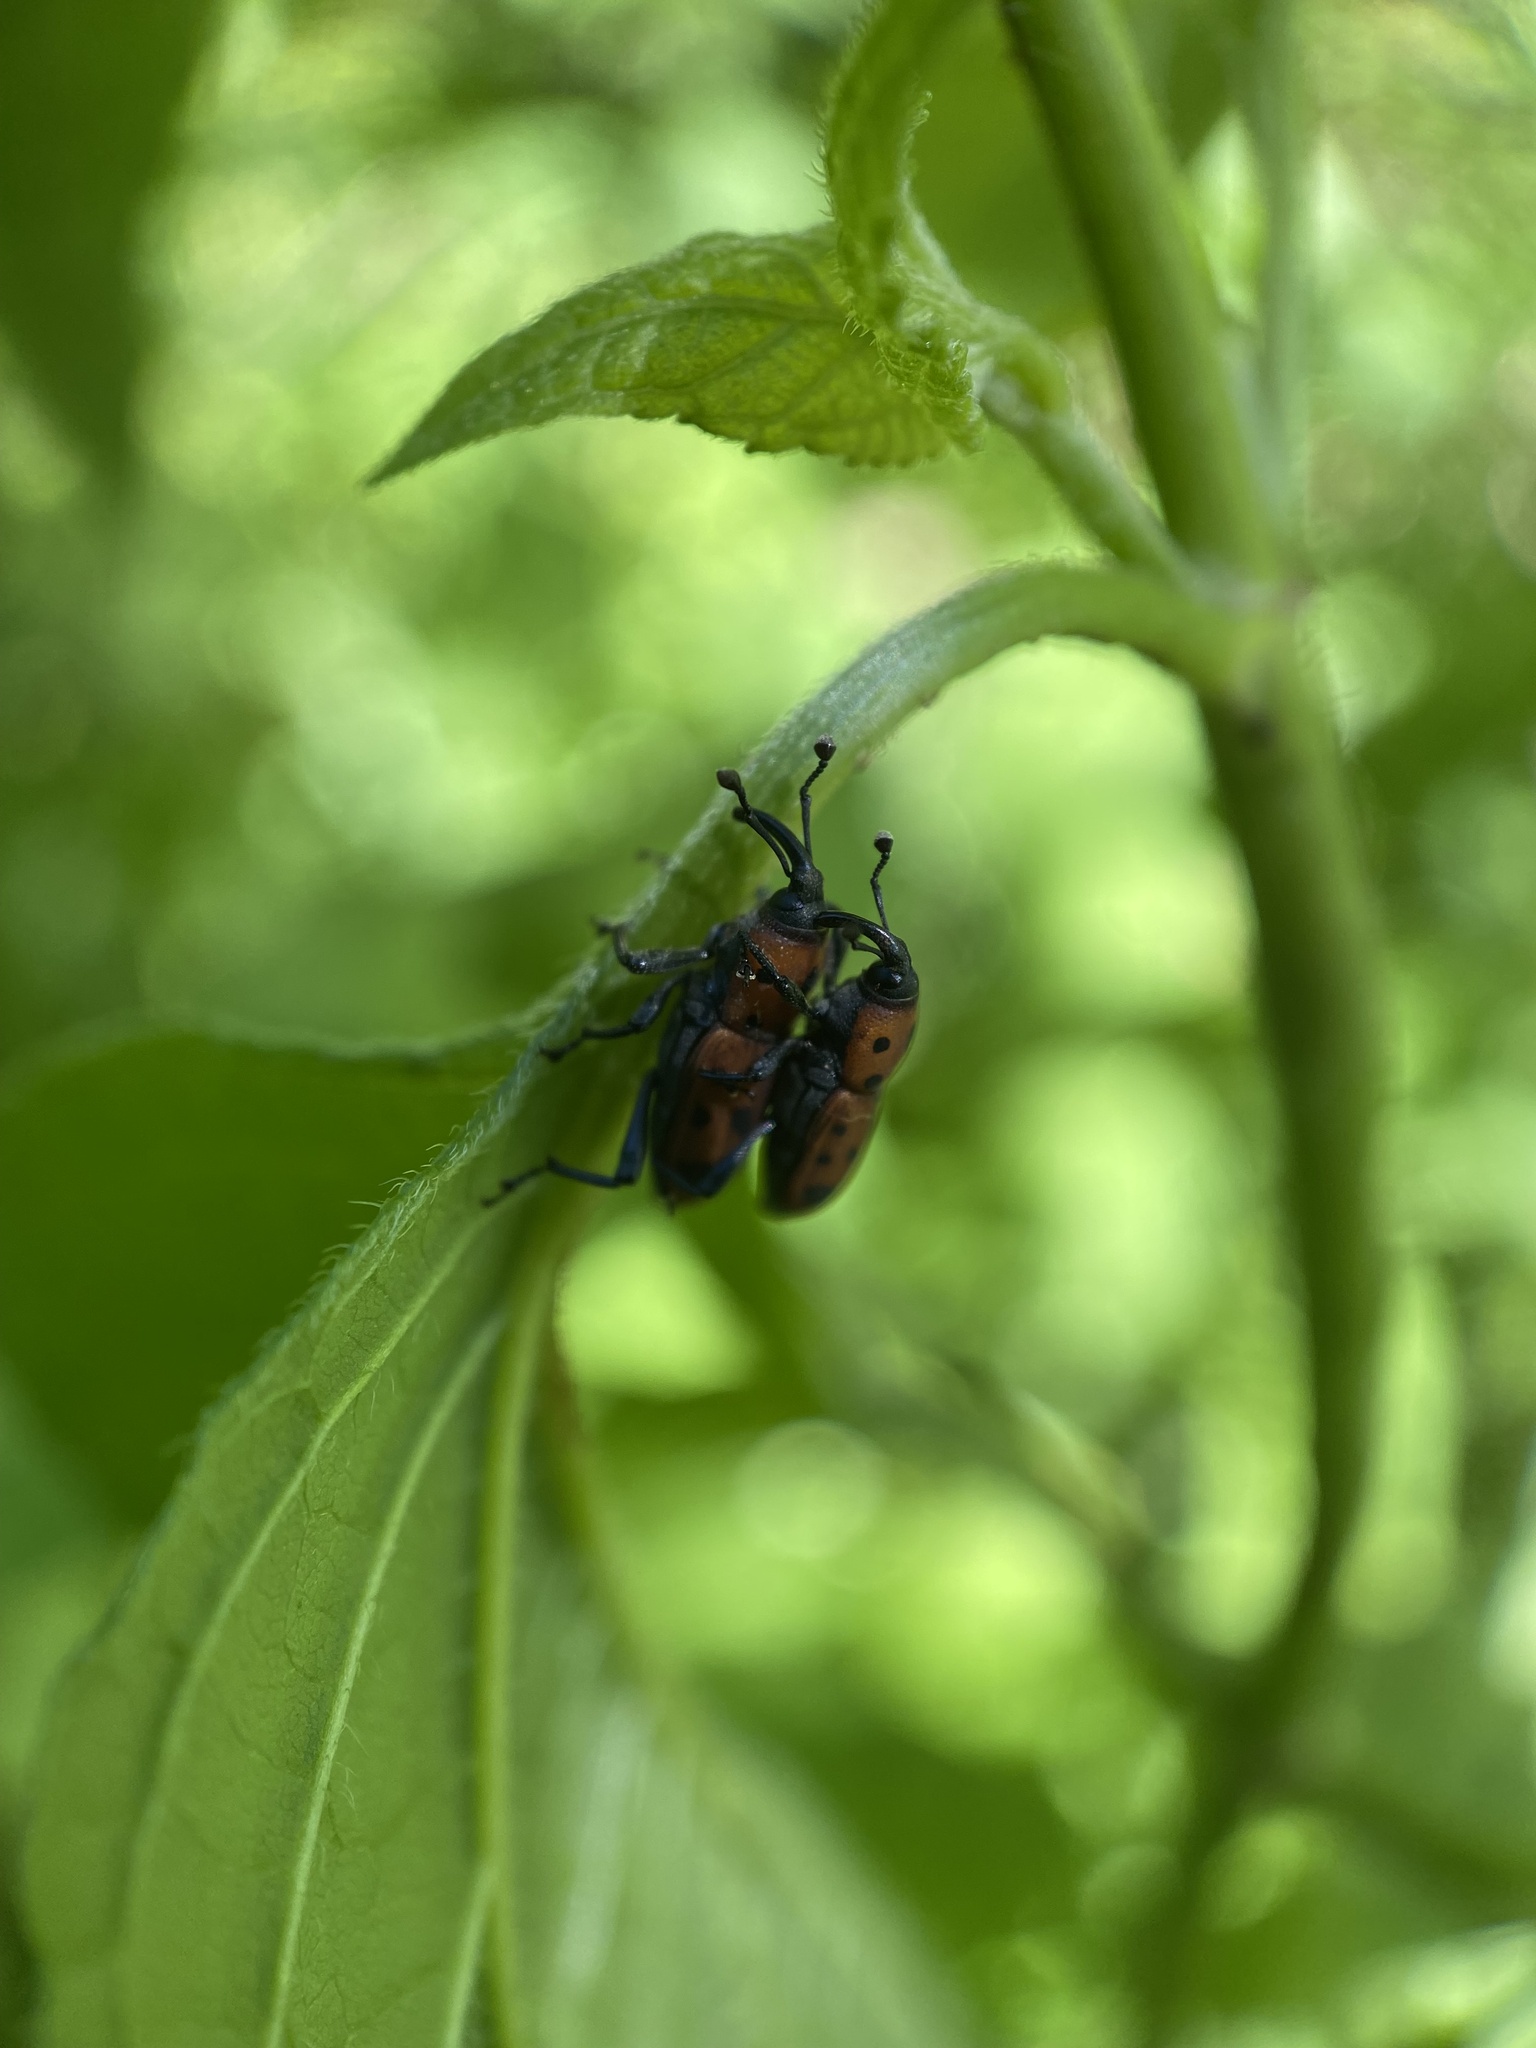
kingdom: Animalia
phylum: Arthropoda
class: Insecta
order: Coleoptera
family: Dryophthoridae
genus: Rhodobaenus
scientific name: Rhodobaenus tredecimpunctatus
